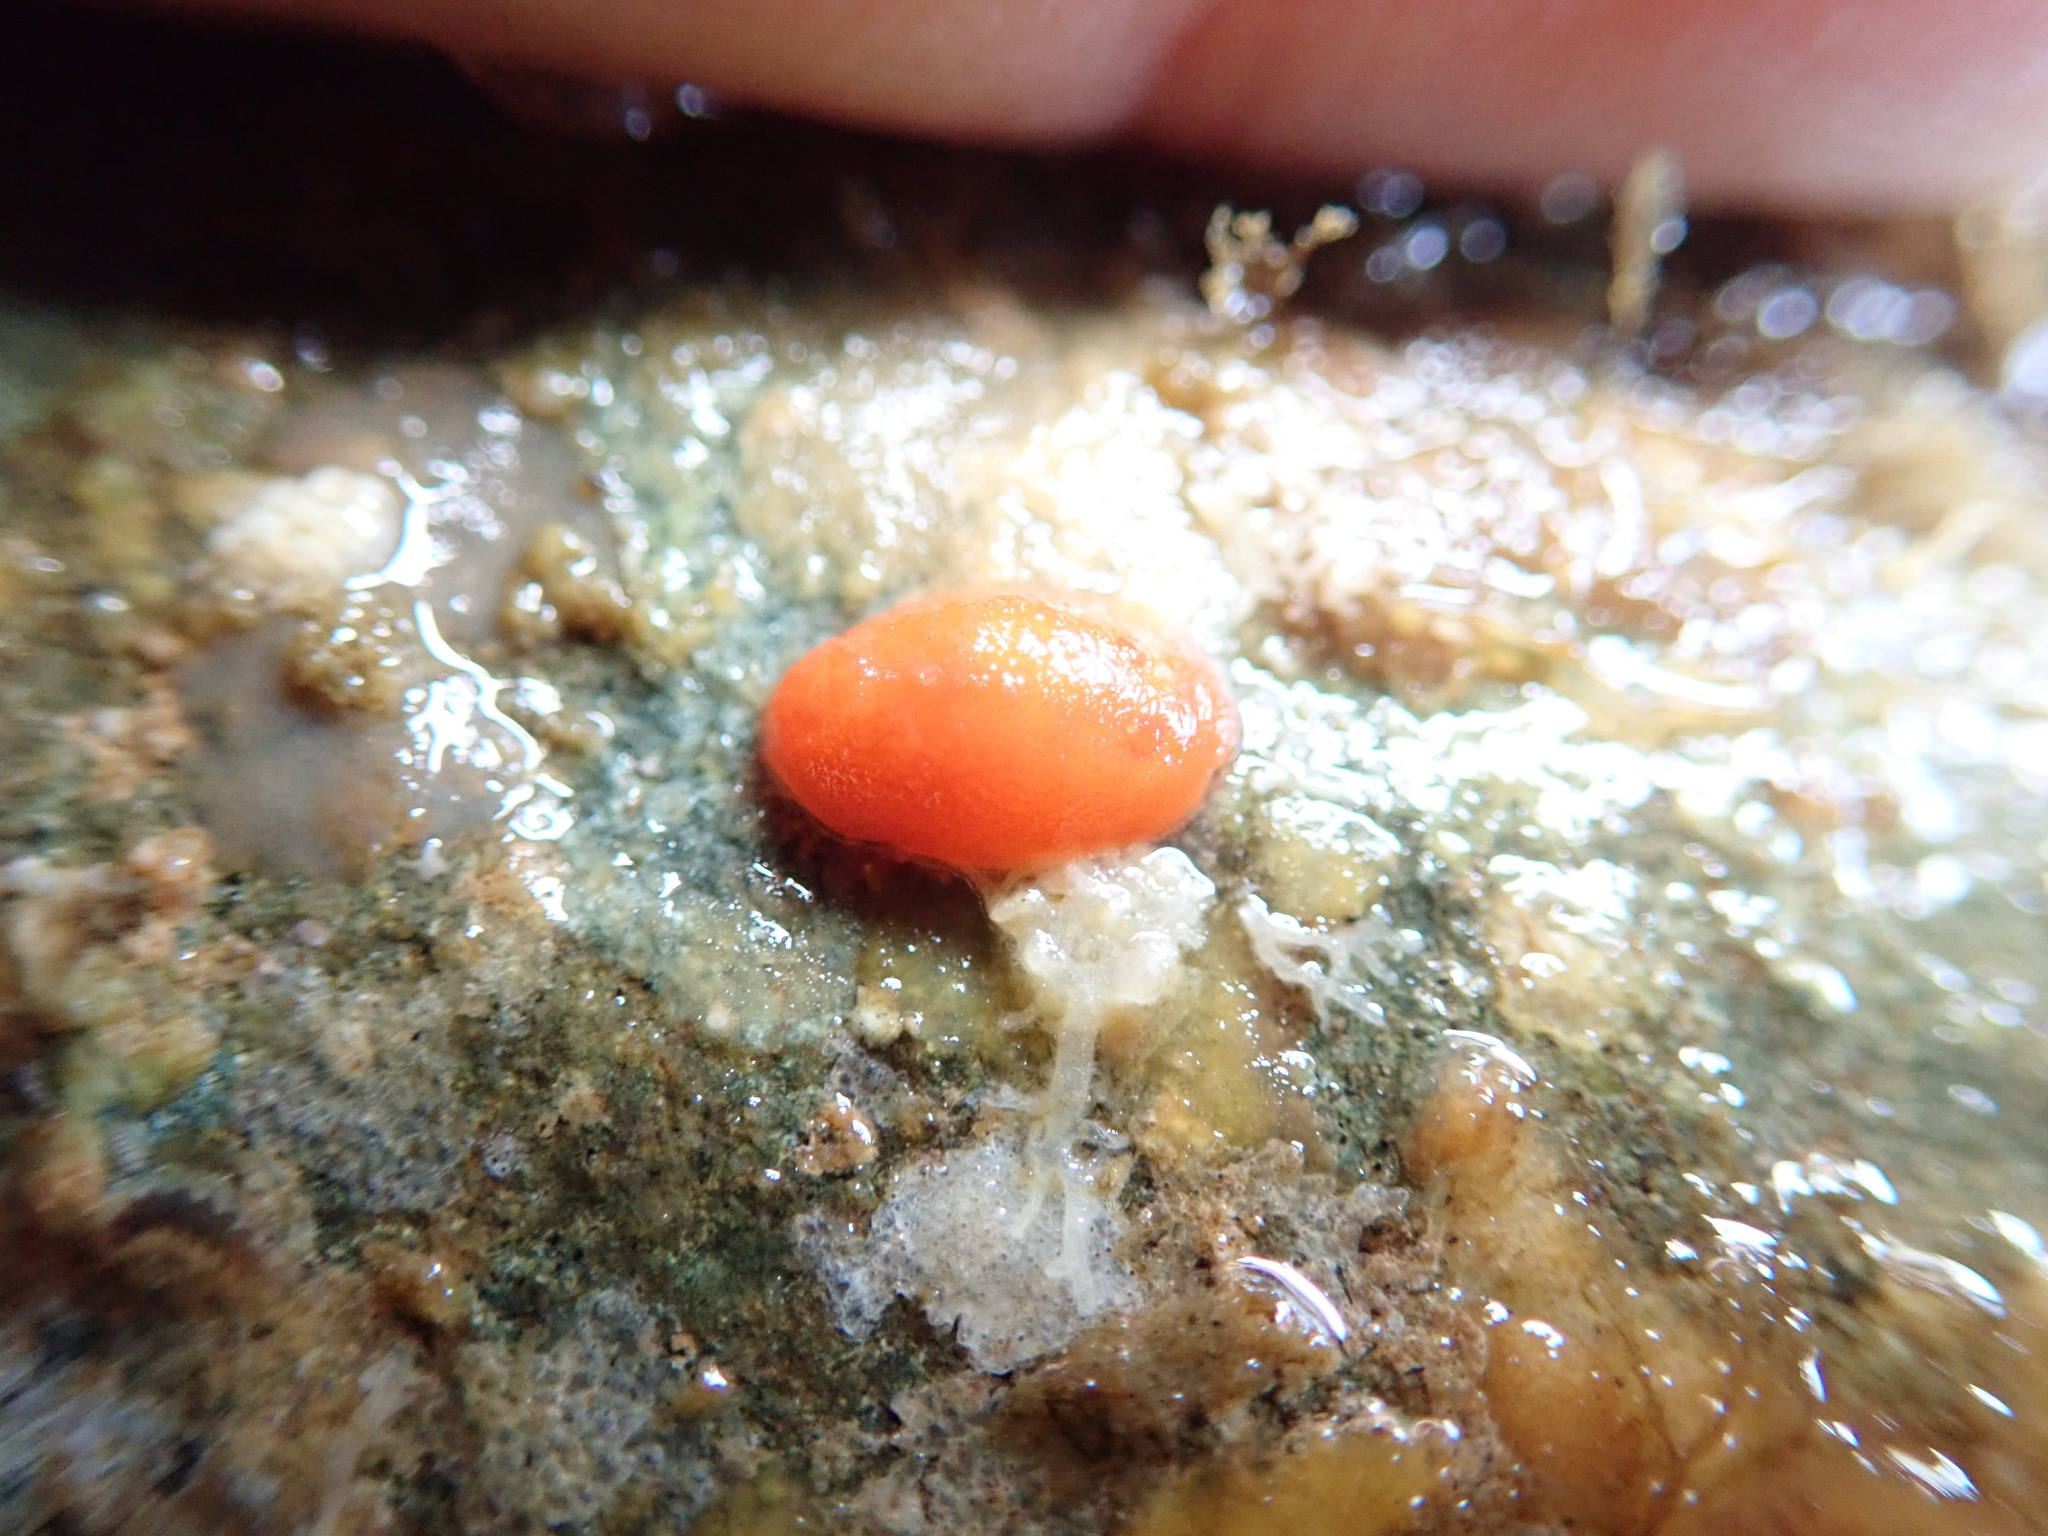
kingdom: Animalia
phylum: Mollusca
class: Gastropoda
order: Nudibranchia
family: Discodorididae
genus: Rostanga
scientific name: Rostanga pulchra
